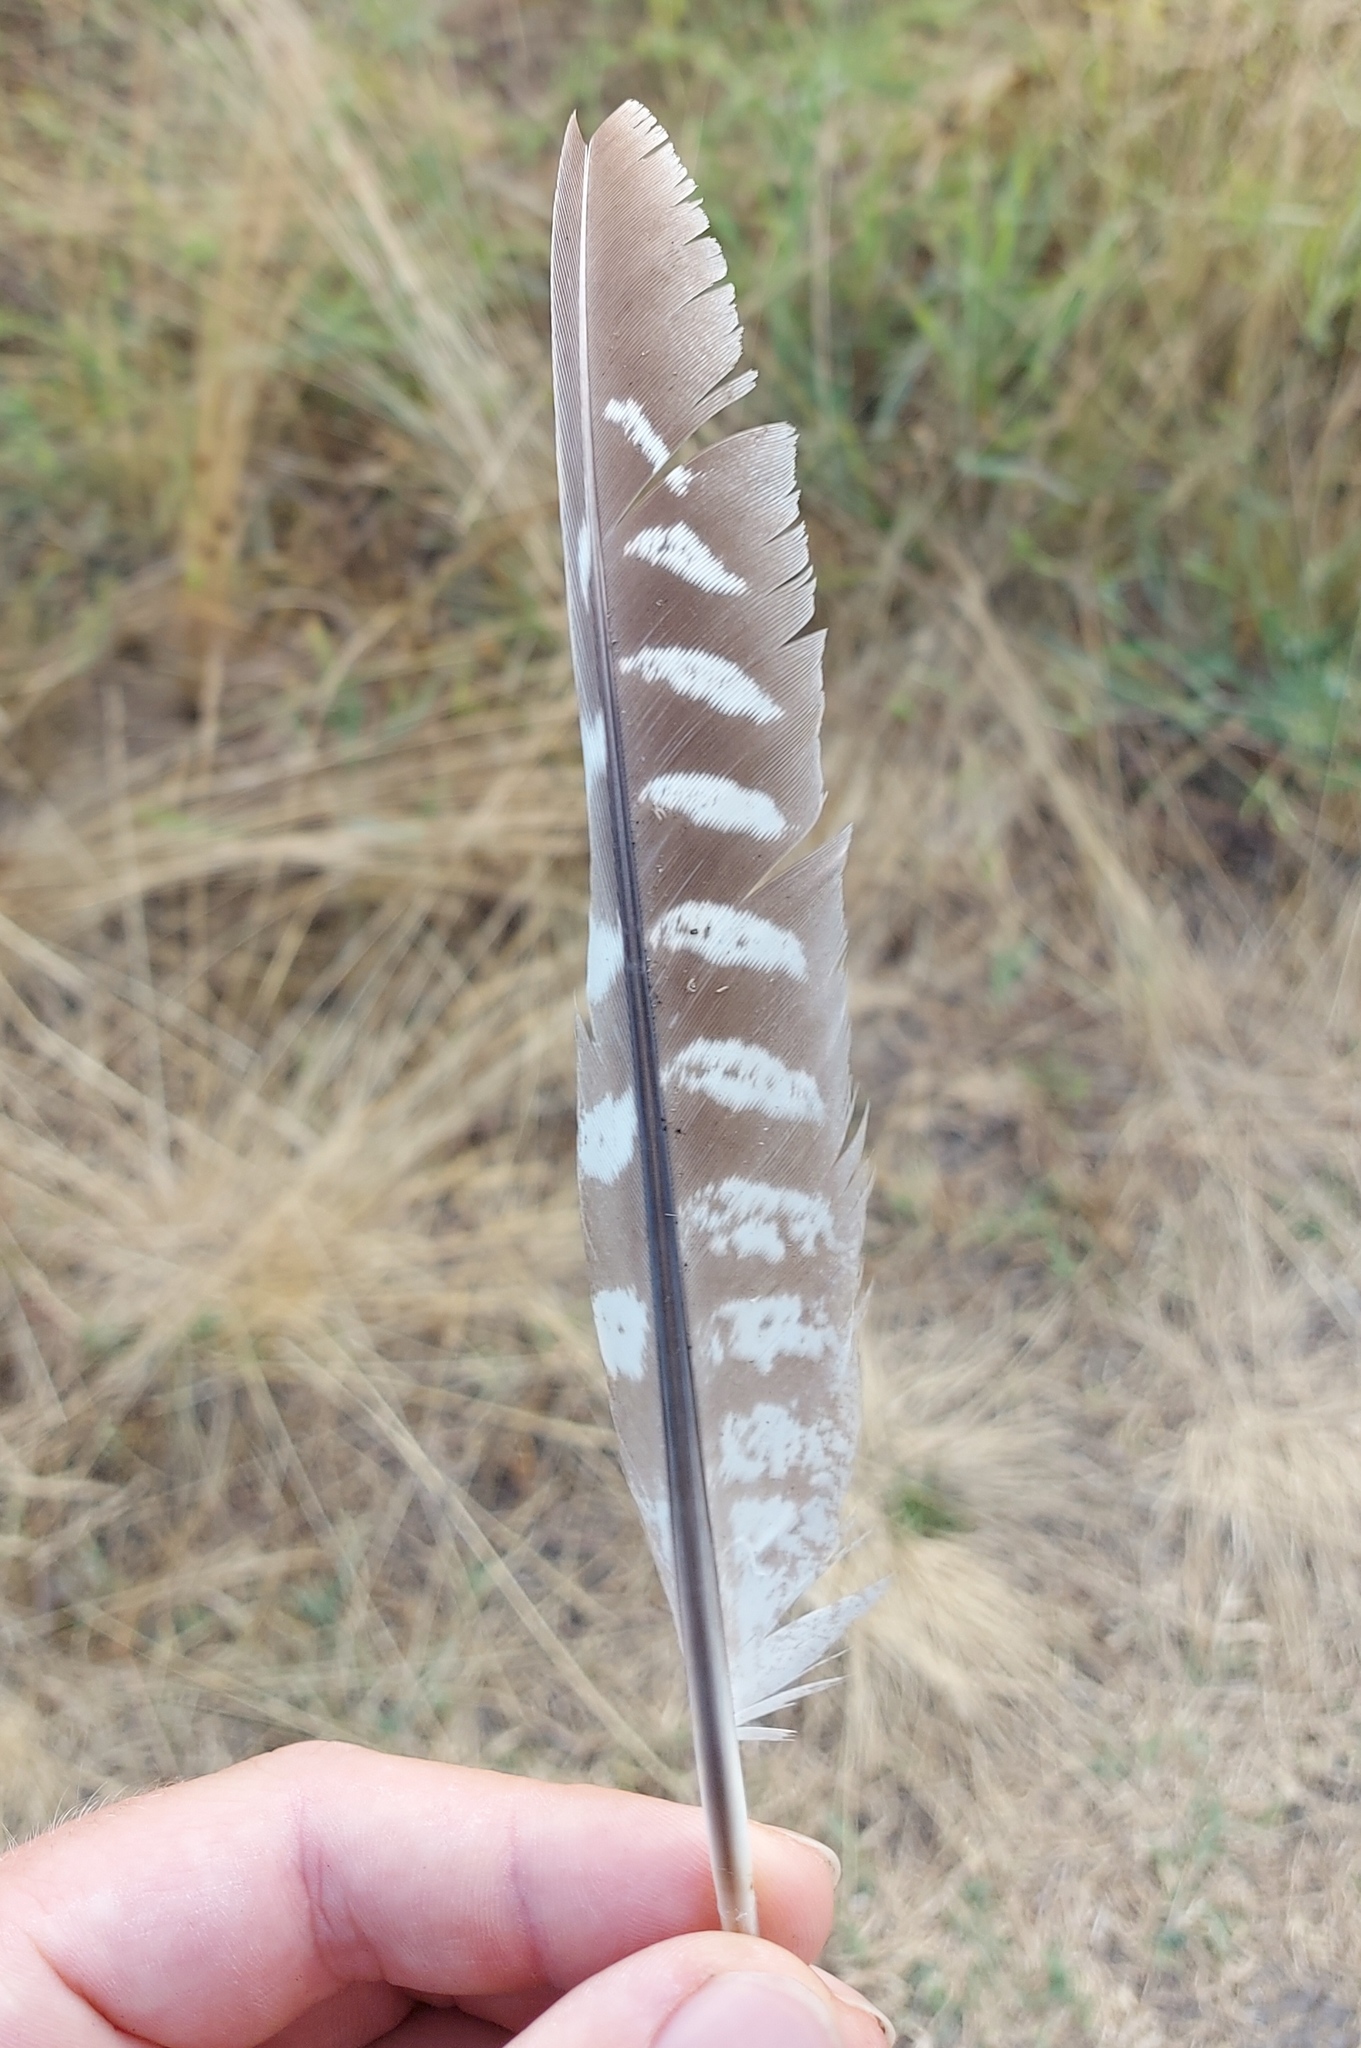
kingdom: Animalia
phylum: Chordata
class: Aves
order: Galliformes
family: Phasianidae
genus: Phasianus
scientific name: Phasianus colchicus
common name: Common pheasant
